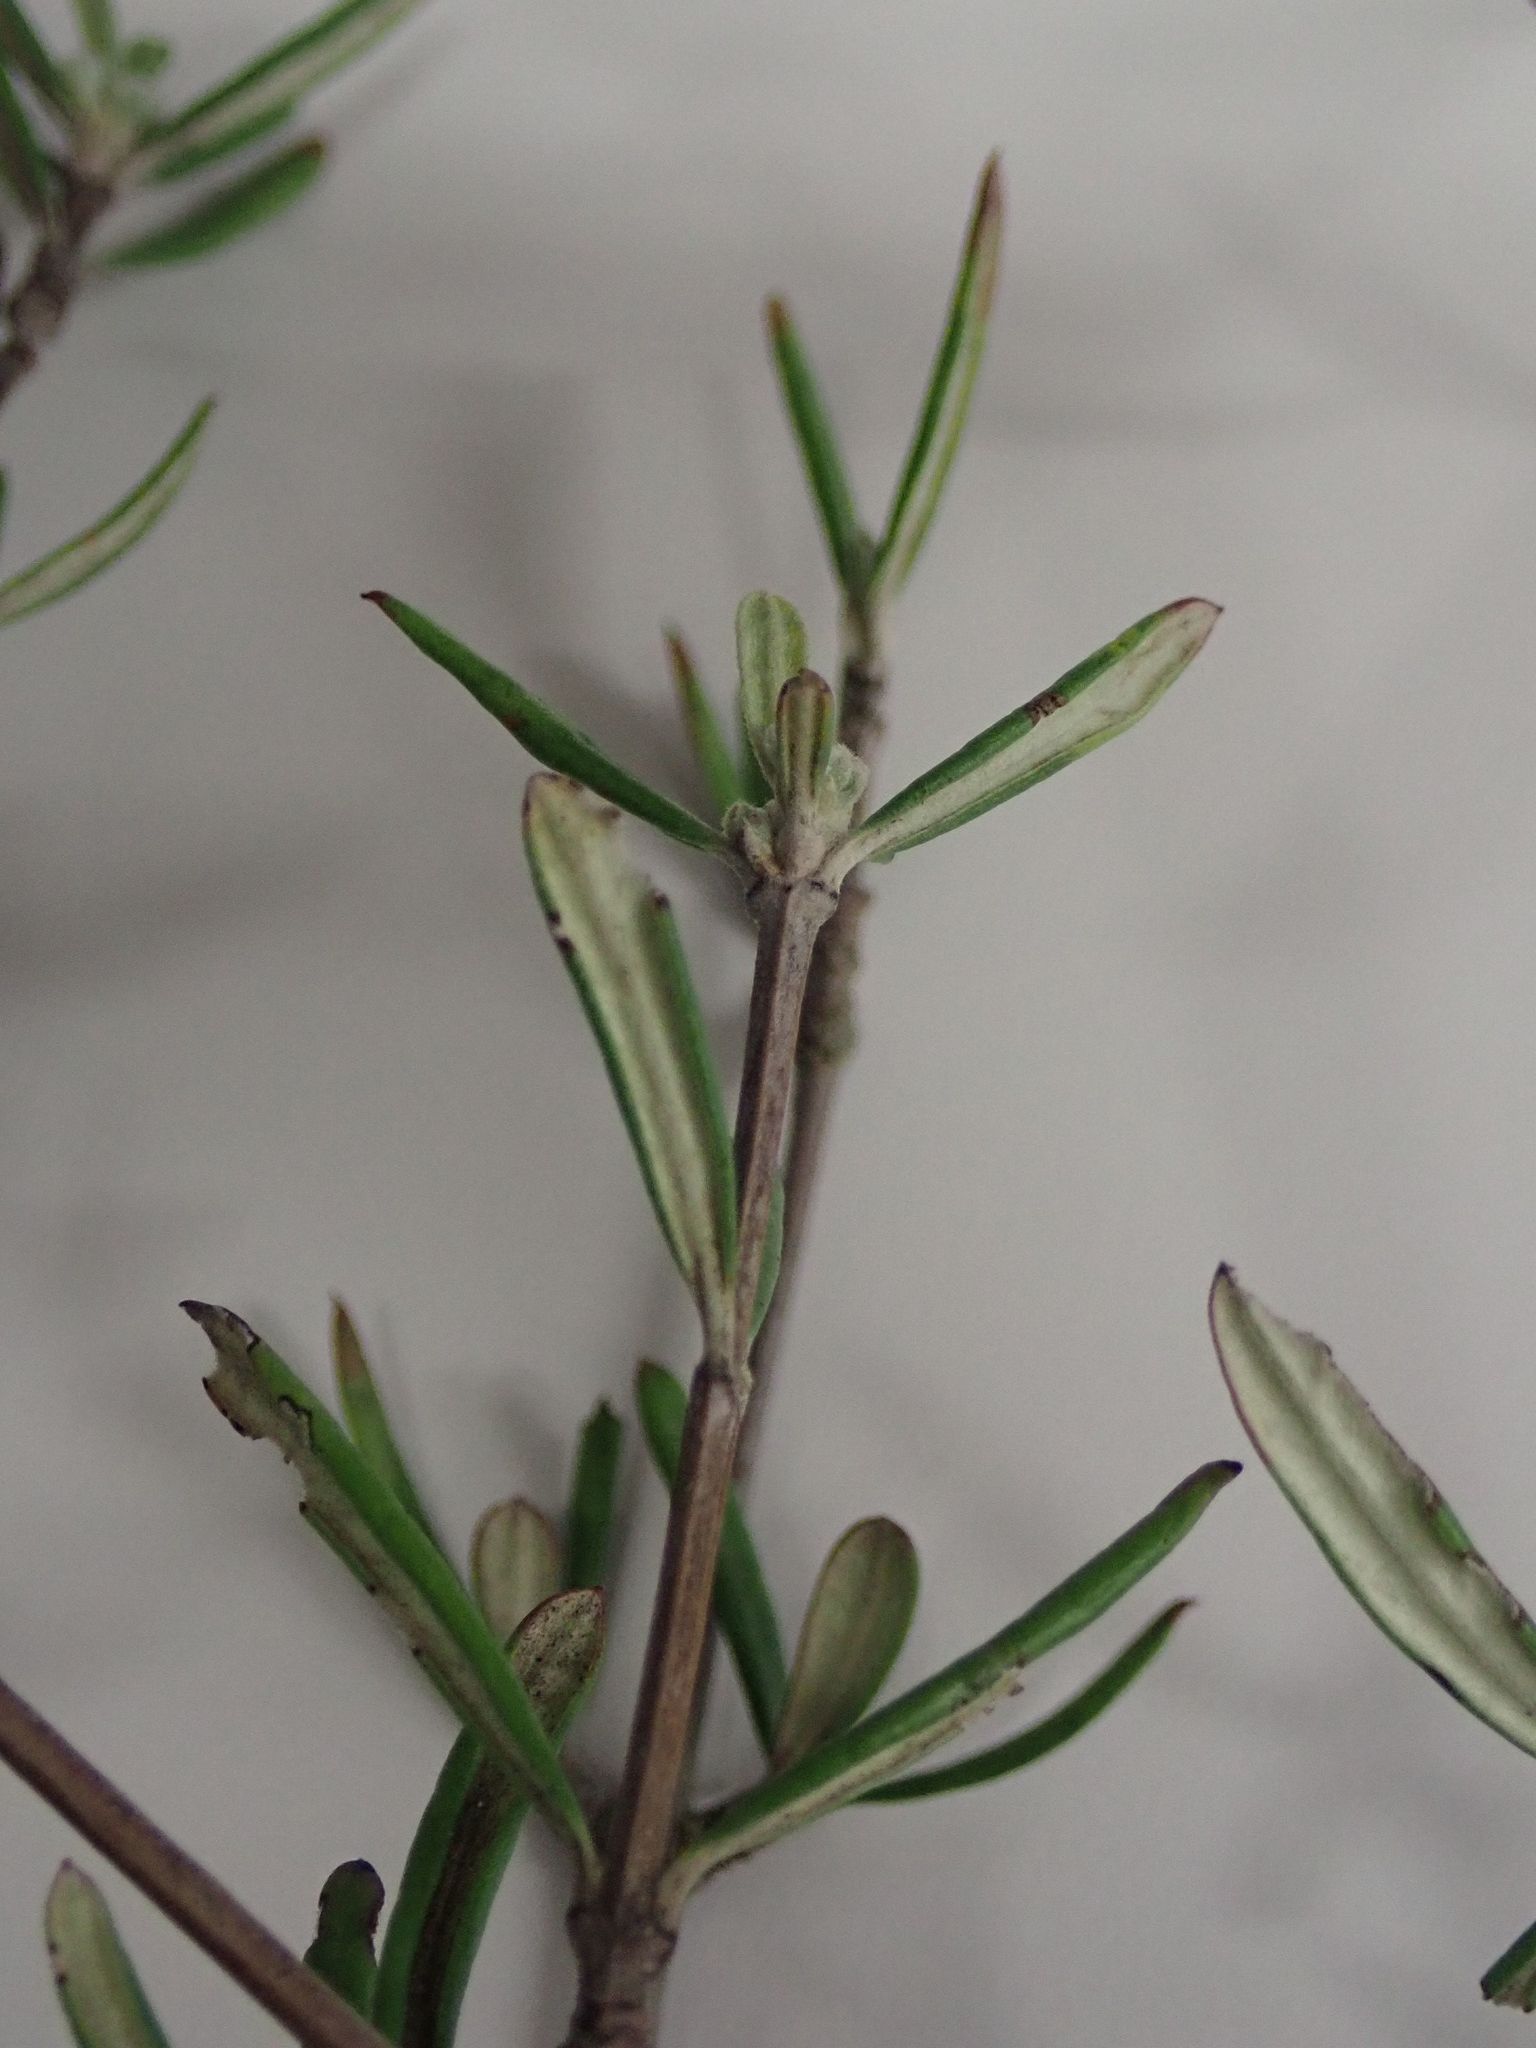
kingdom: Plantae
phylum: Tracheophyta
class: Magnoliopsida
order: Asterales
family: Asteraceae
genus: Olearia
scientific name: Olearia lineata
